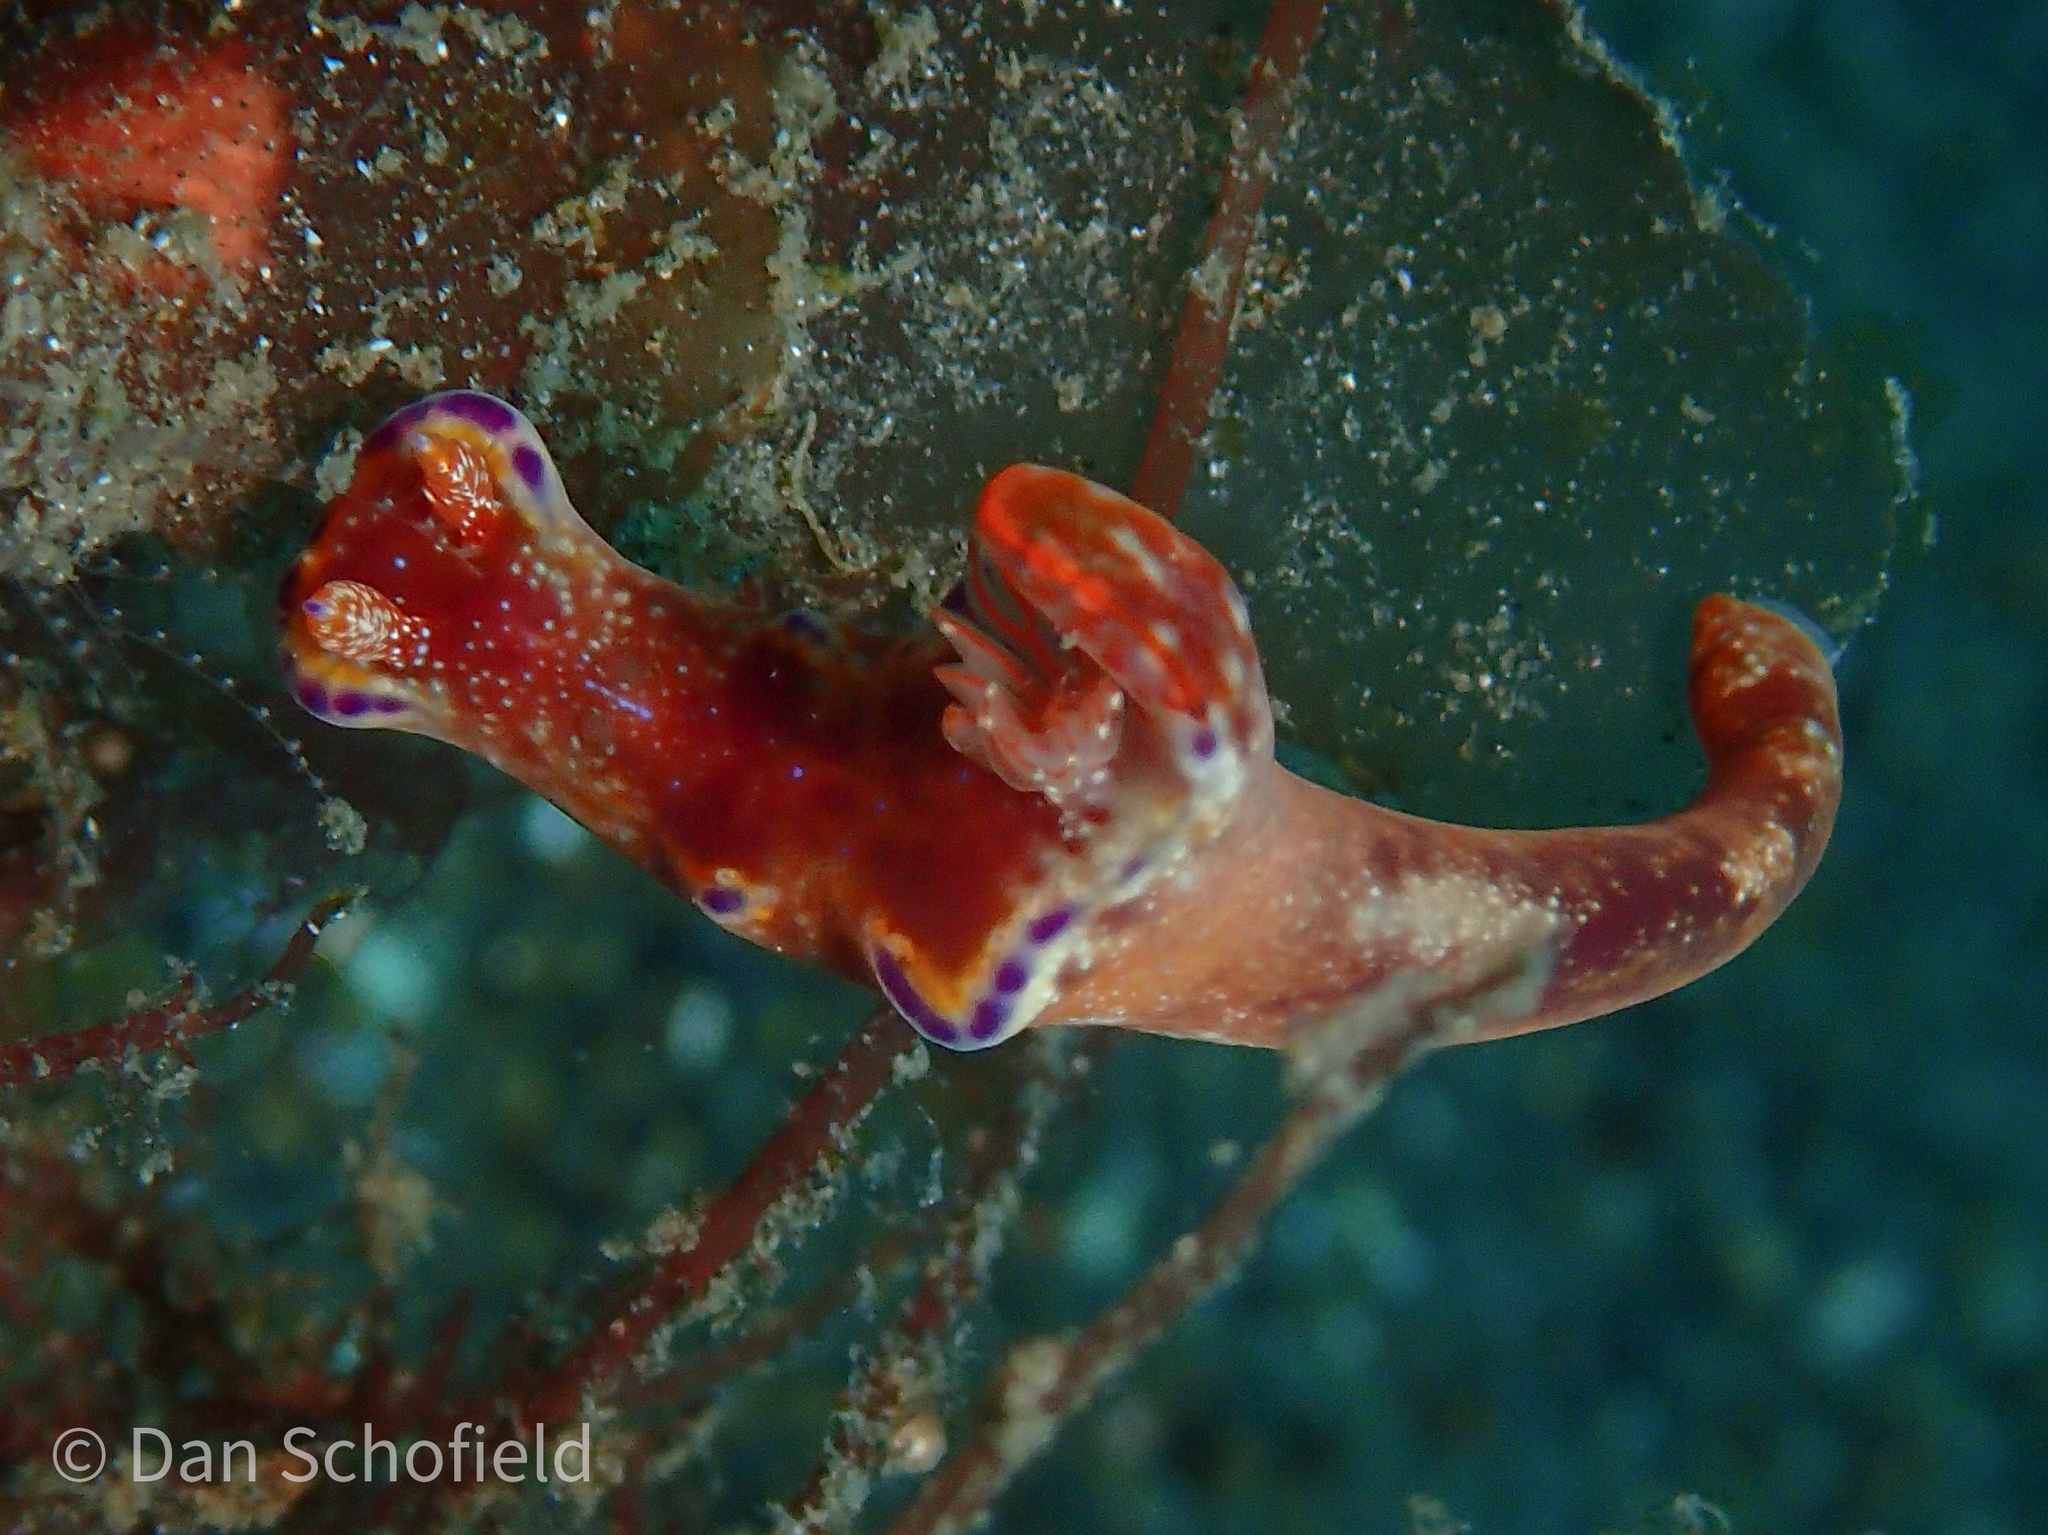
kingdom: Animalia
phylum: Mollusca
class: Gastropoda
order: Nudibranchia
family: Chromodorididae
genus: Ceratosoma
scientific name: Ceratosoma tenue
